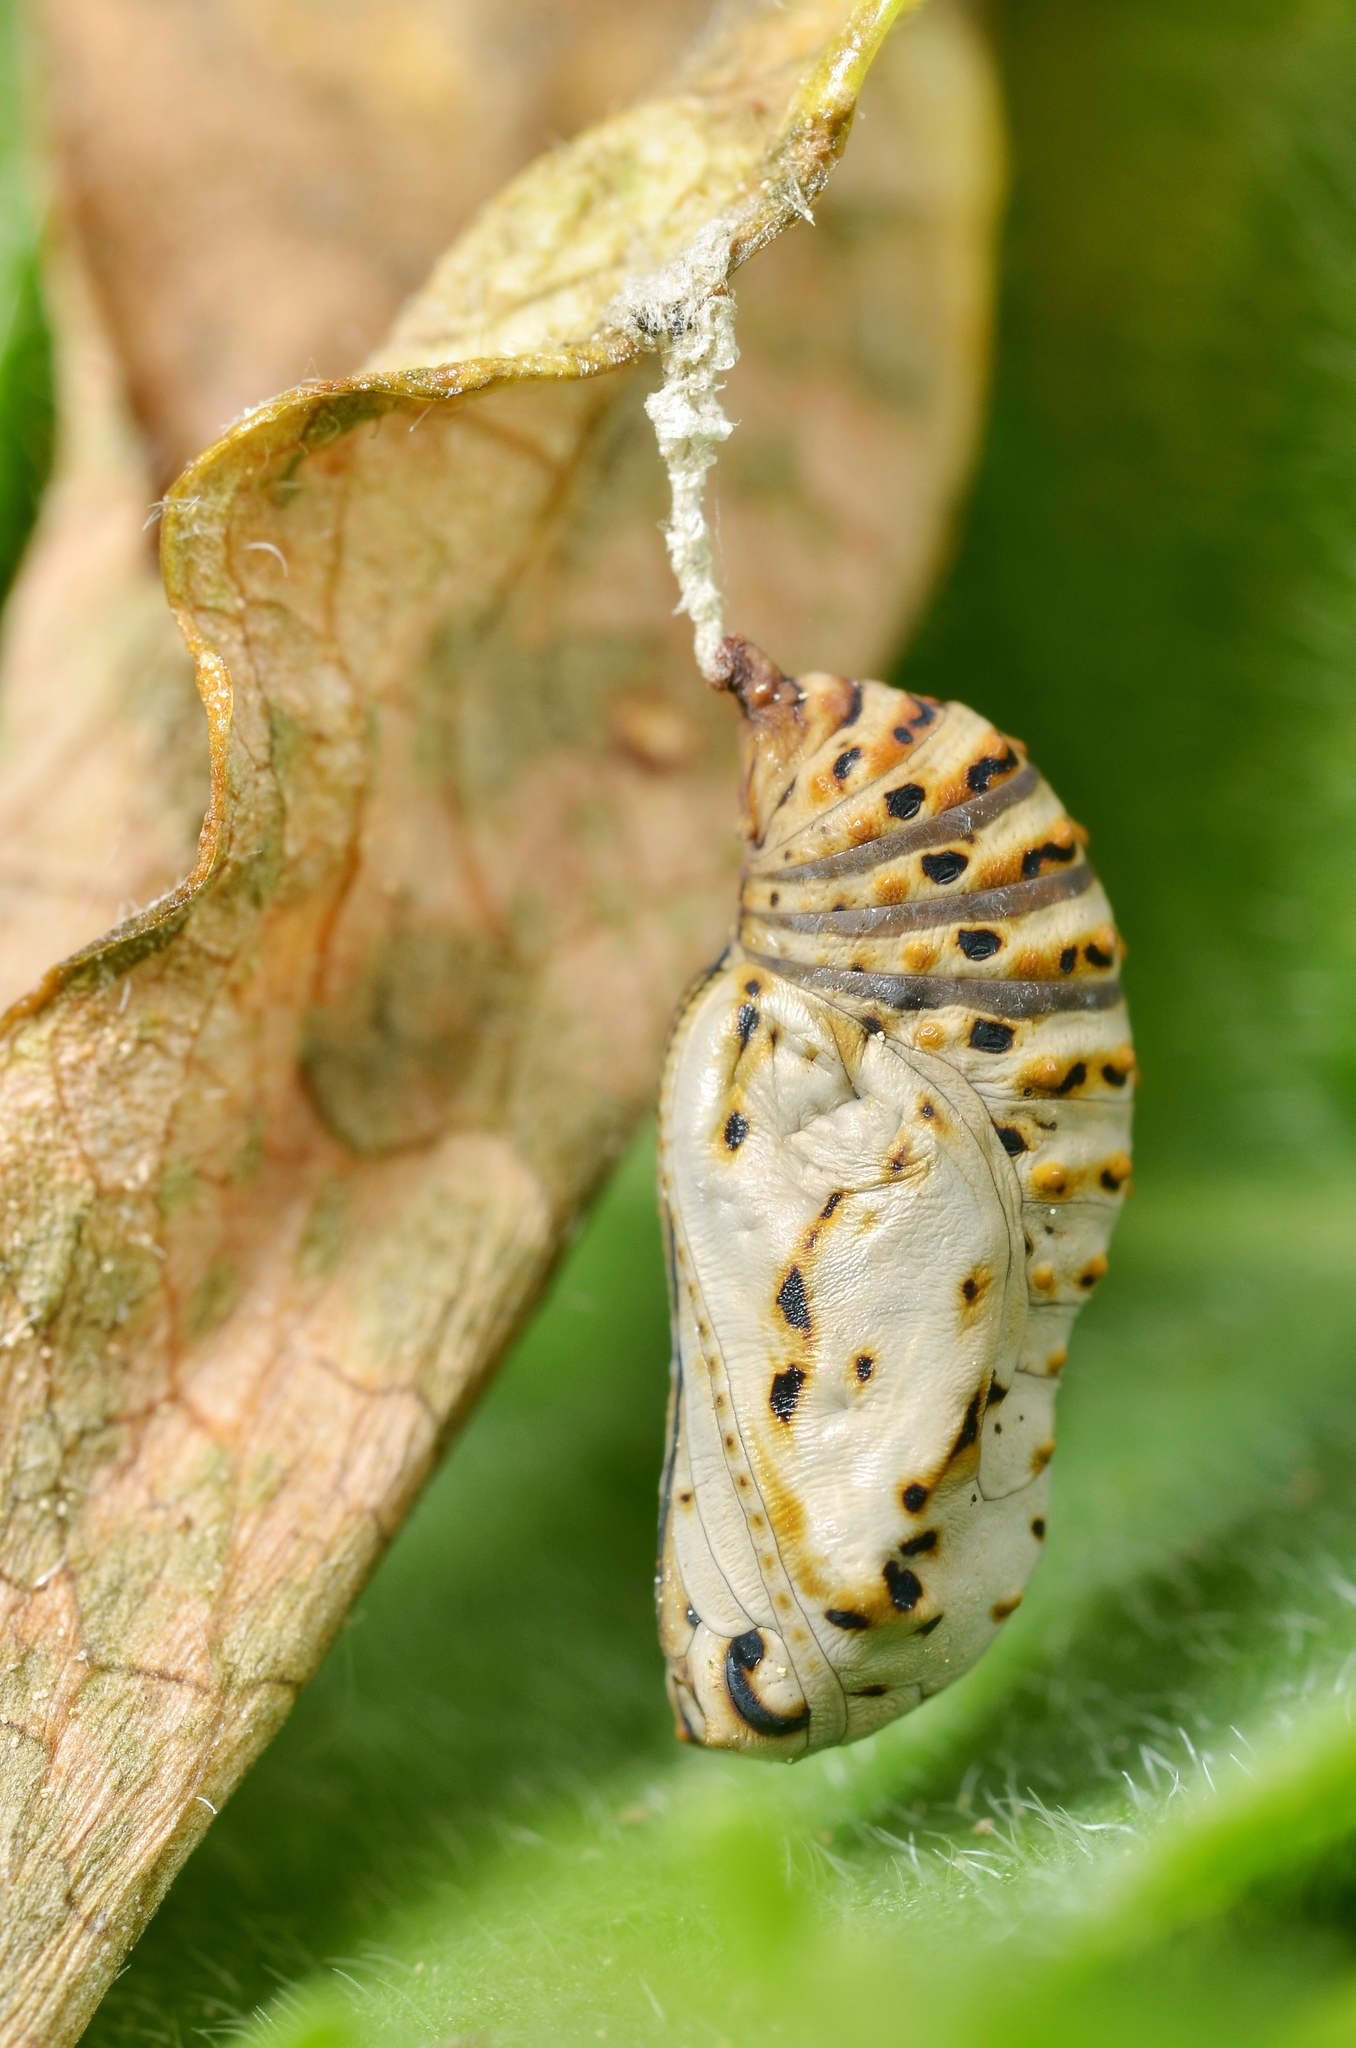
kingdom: Animalia
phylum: Arthropoda
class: Insecta
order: Lepidoptera
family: Nymphalidae
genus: Euphydryas
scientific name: Euphydryas aurinia
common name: Marsh fritillary
